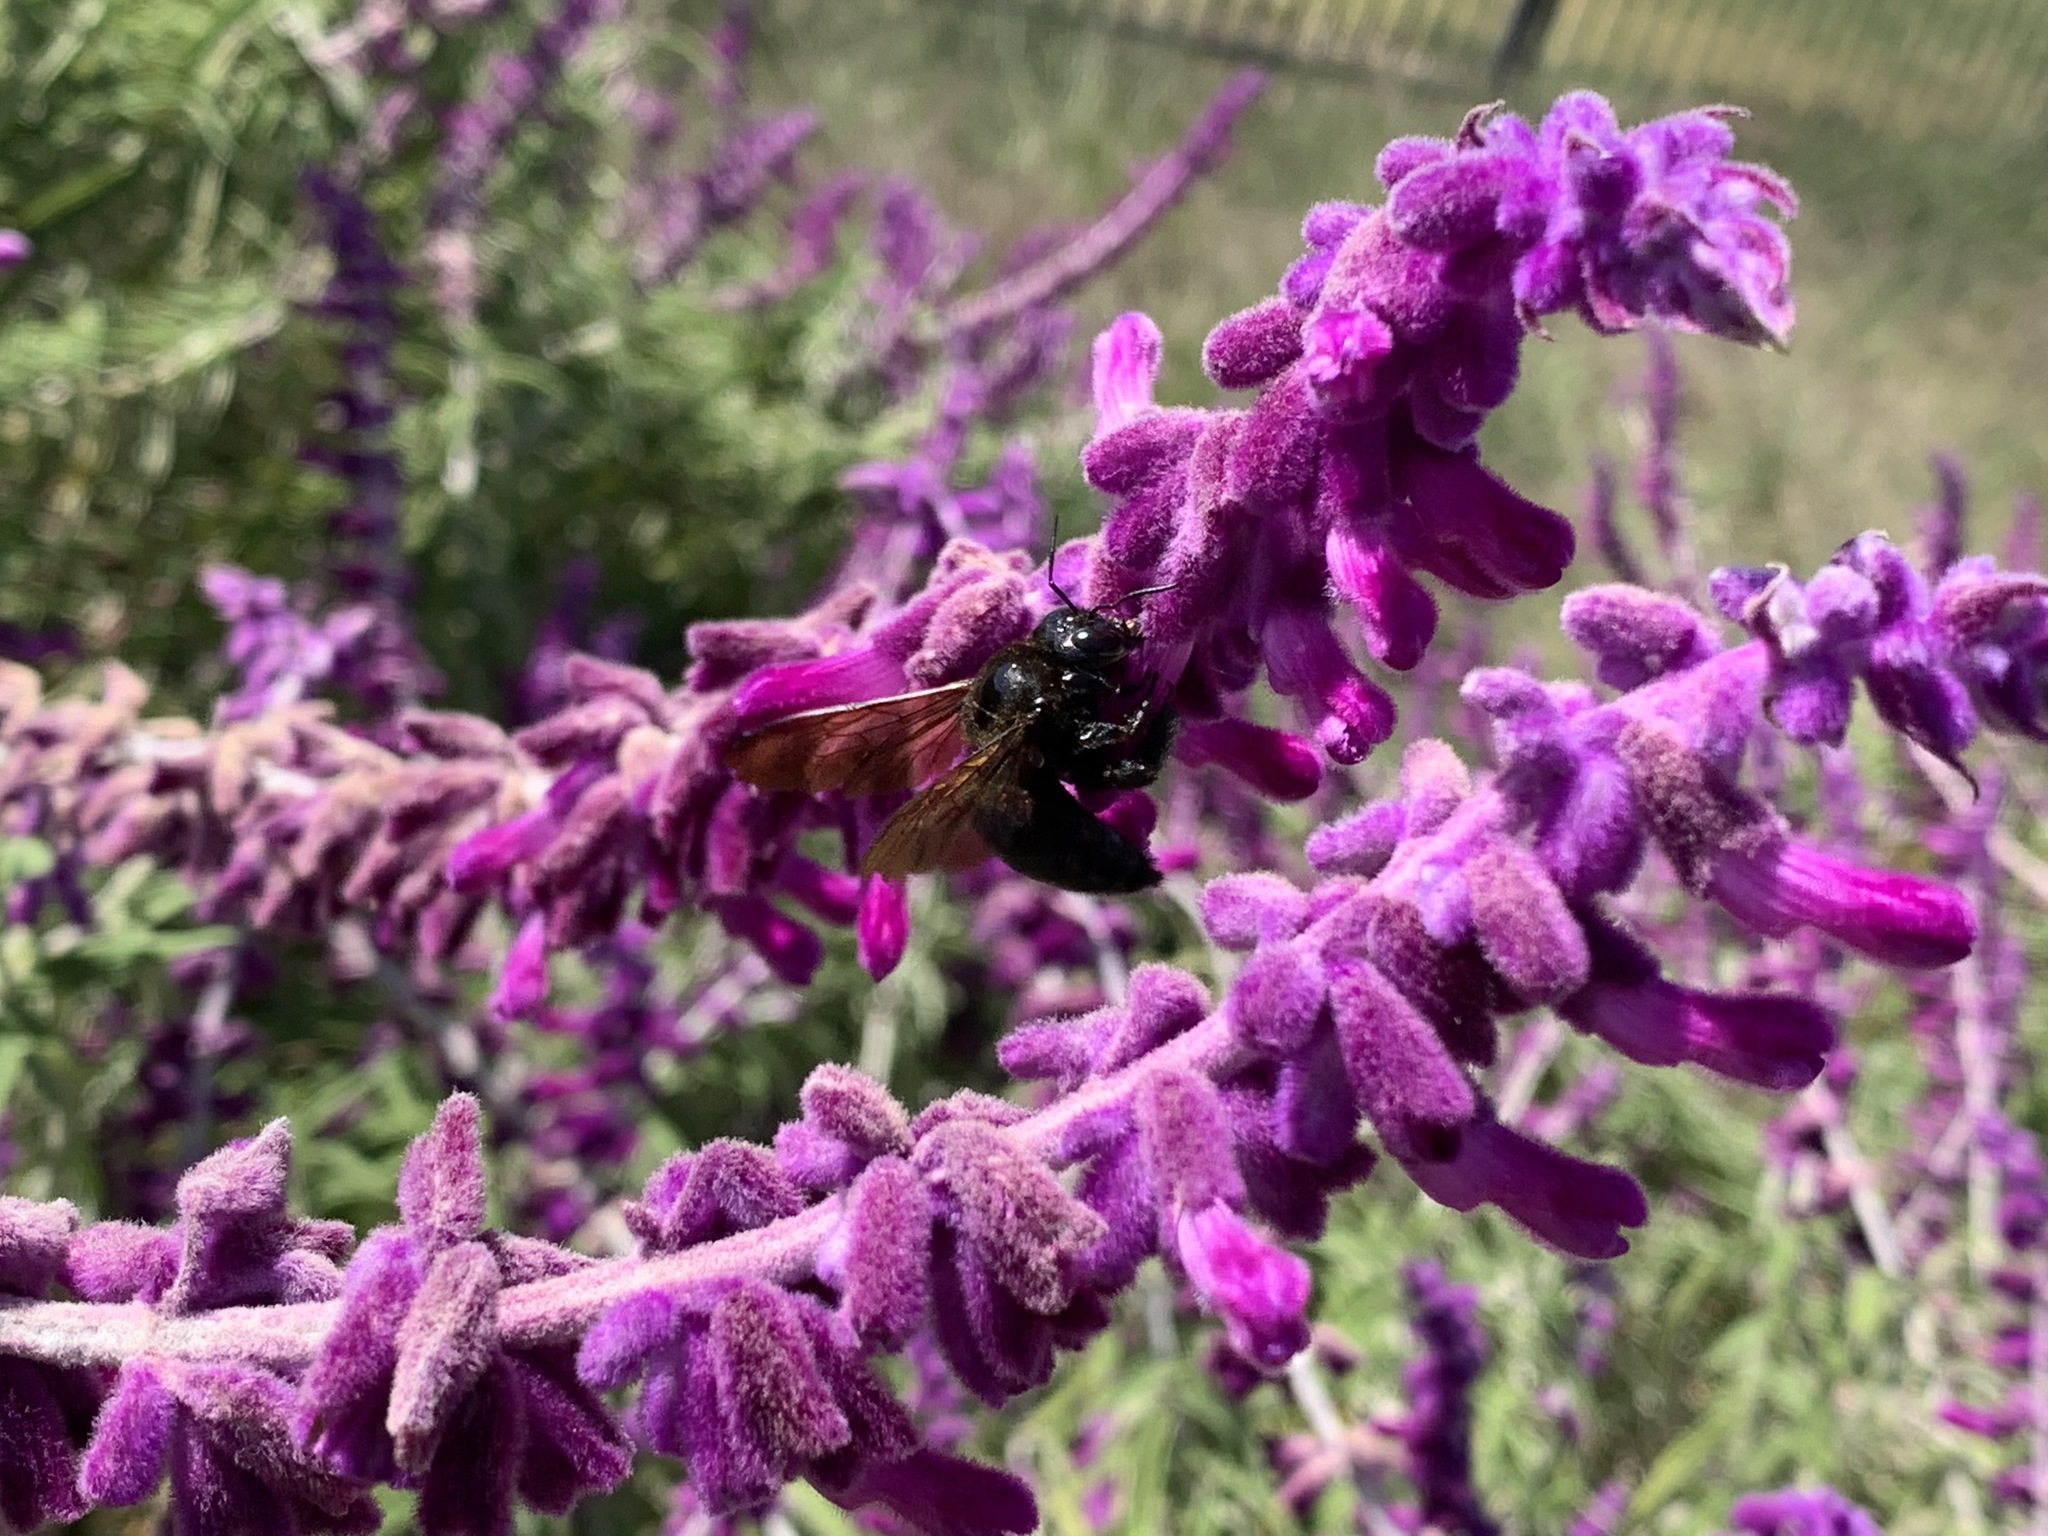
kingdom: Animalia
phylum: Arthropoda
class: Insecta
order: Hymenoptera
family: Apidae
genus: Xylocopa
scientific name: Xylocopa sonorina
